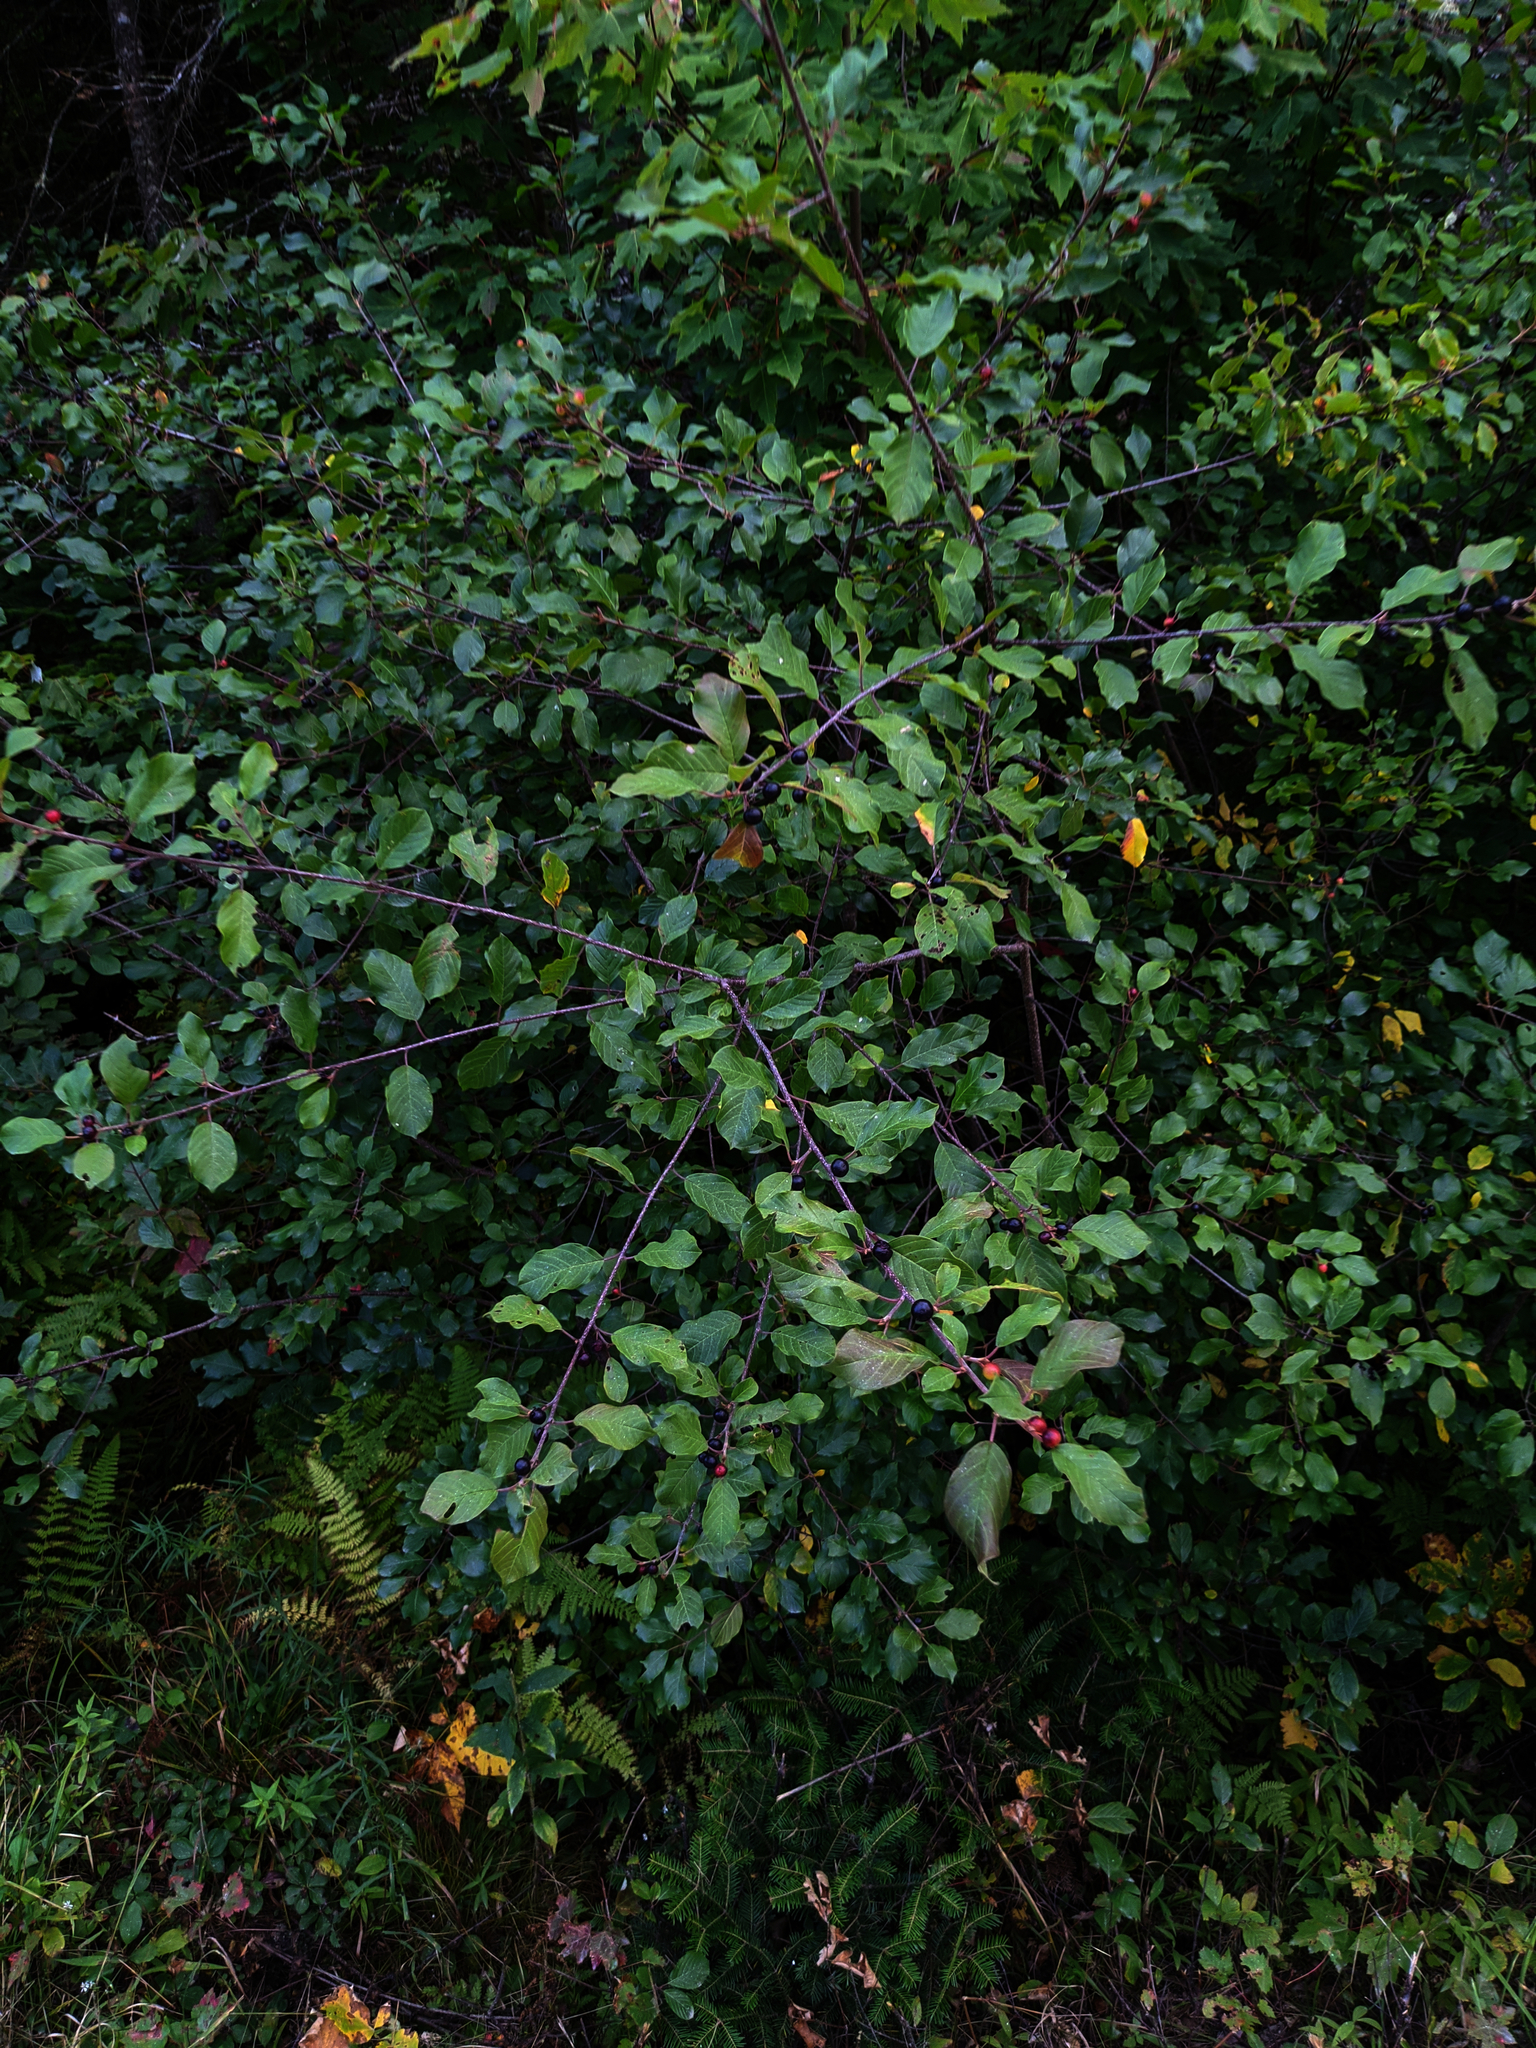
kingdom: Plantae
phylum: Tracheophyta
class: Magnoliopsida
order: Rosales
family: Rhamnaceae
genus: Frangula
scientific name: Frangula alnus
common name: Alder buckthorn
